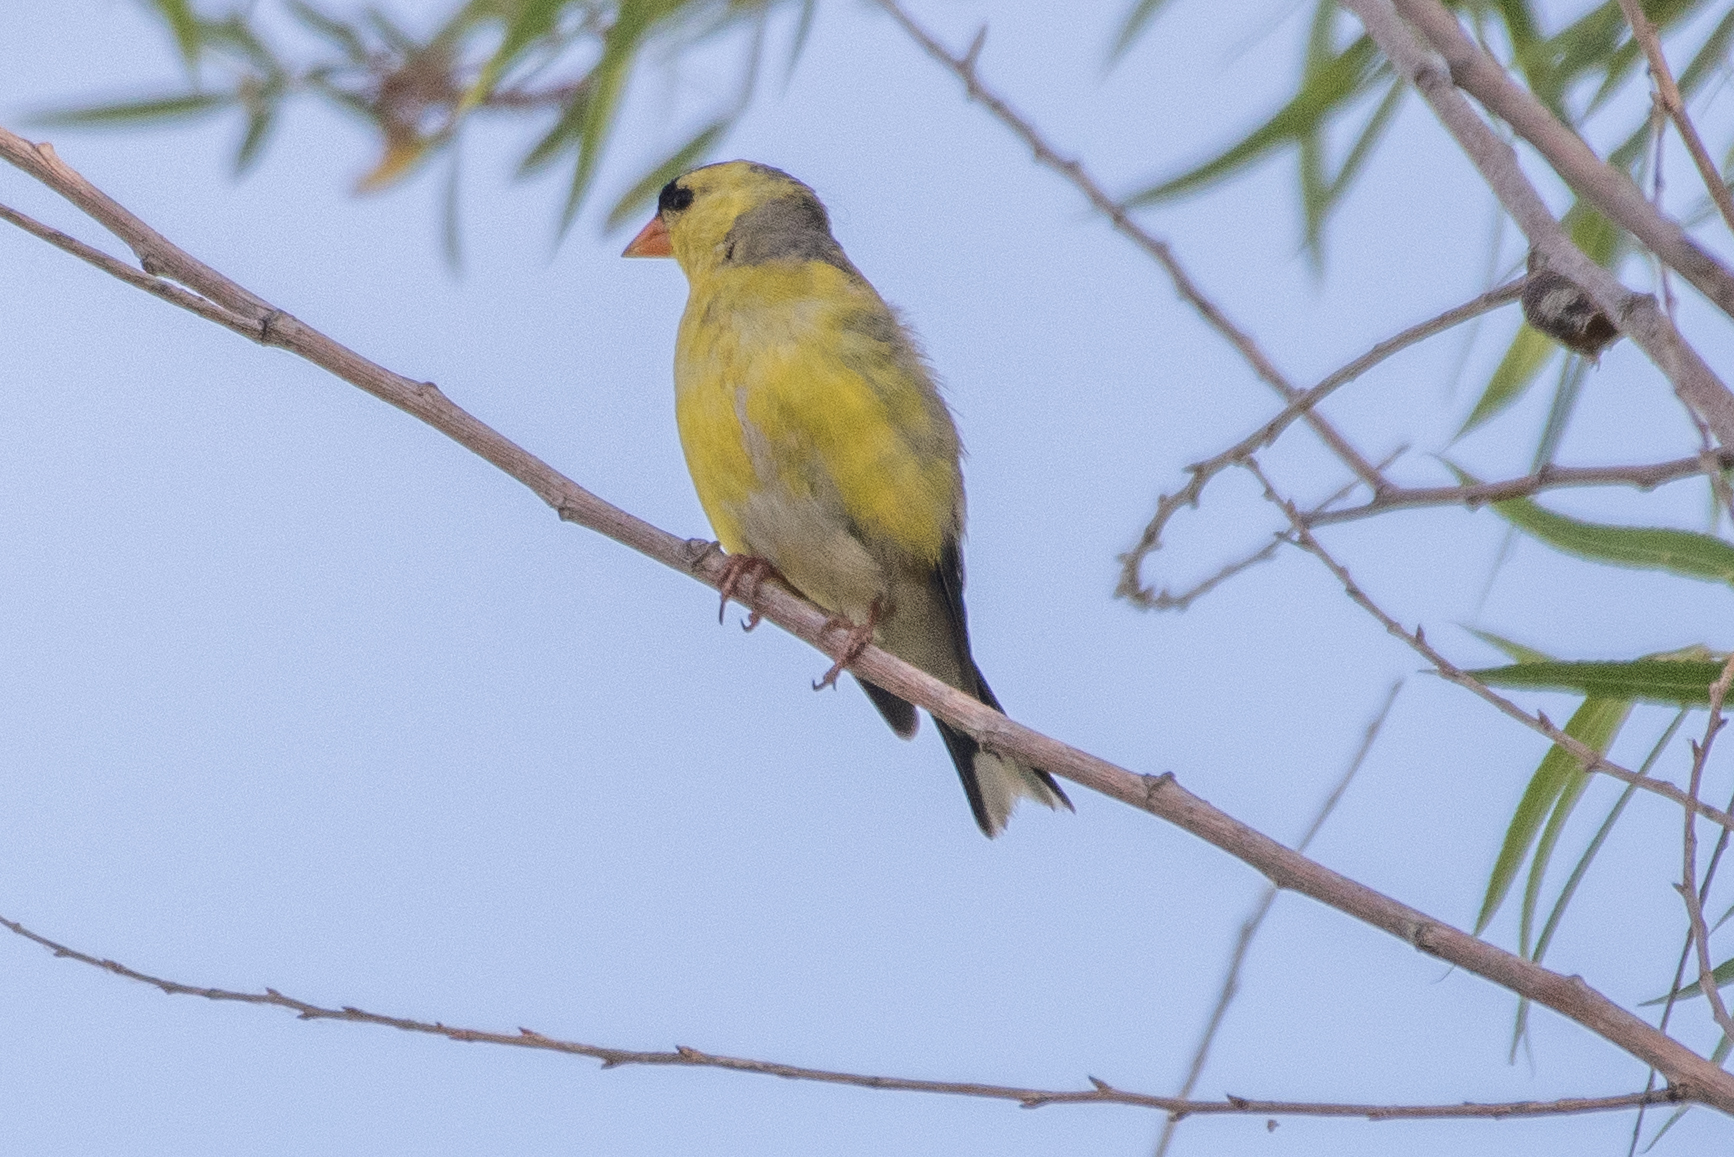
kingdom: Animalia
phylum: Chordata
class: Aves
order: Passeriformes
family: Fringillidae
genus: Spinus
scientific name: Spinus tristis
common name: American goldfinch
